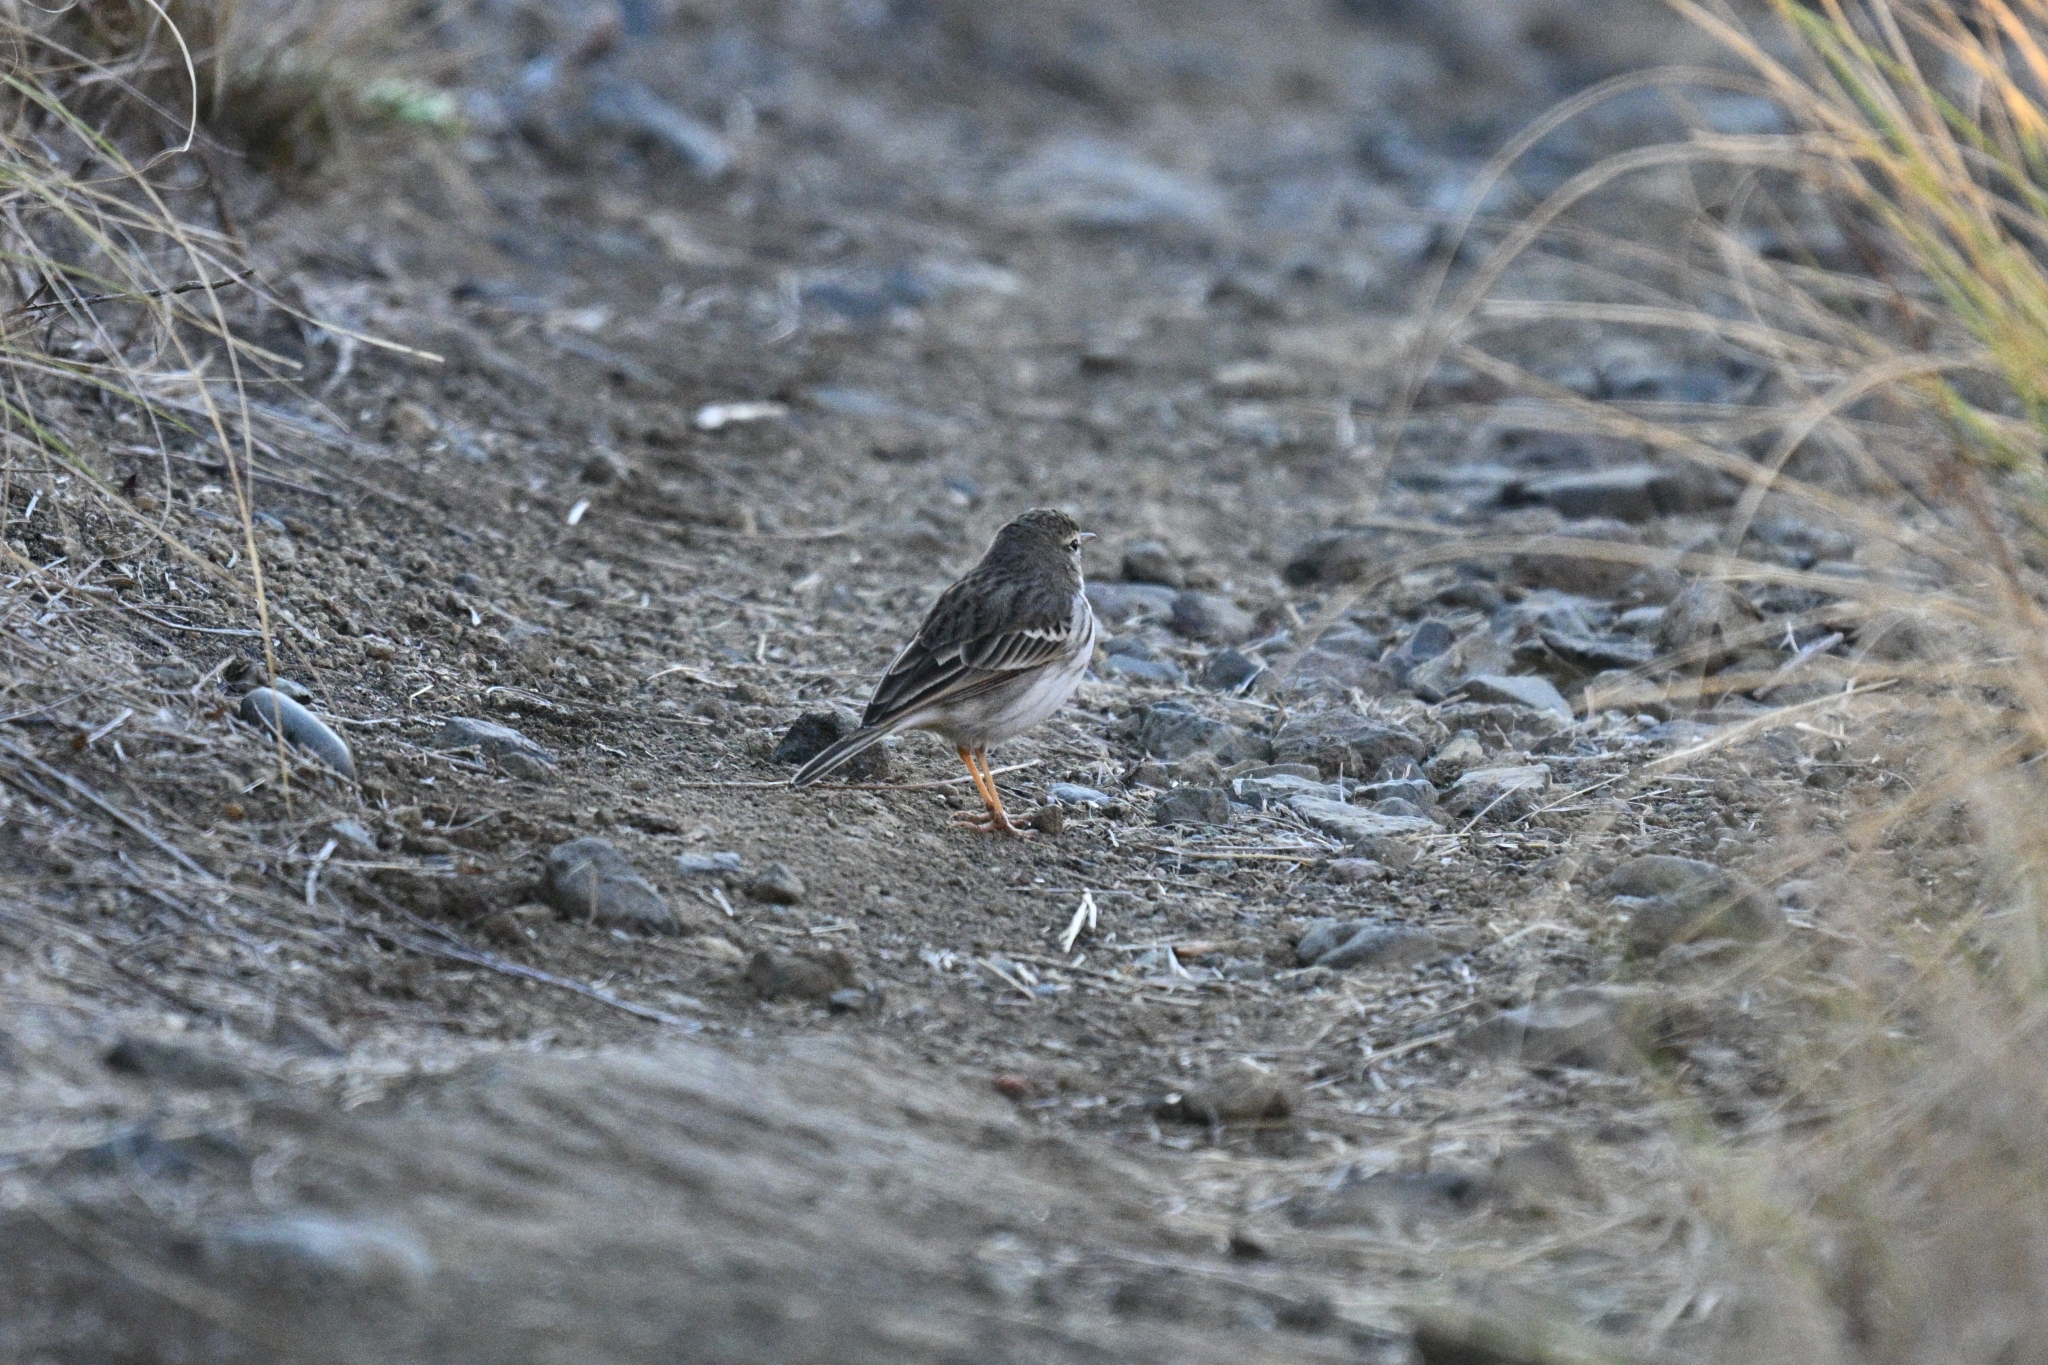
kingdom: Animalia
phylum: Chordata
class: Aves
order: Passeriformes
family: Motacillidae
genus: Anthus
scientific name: Anthus berthelotii
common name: Berthelot's pipit
